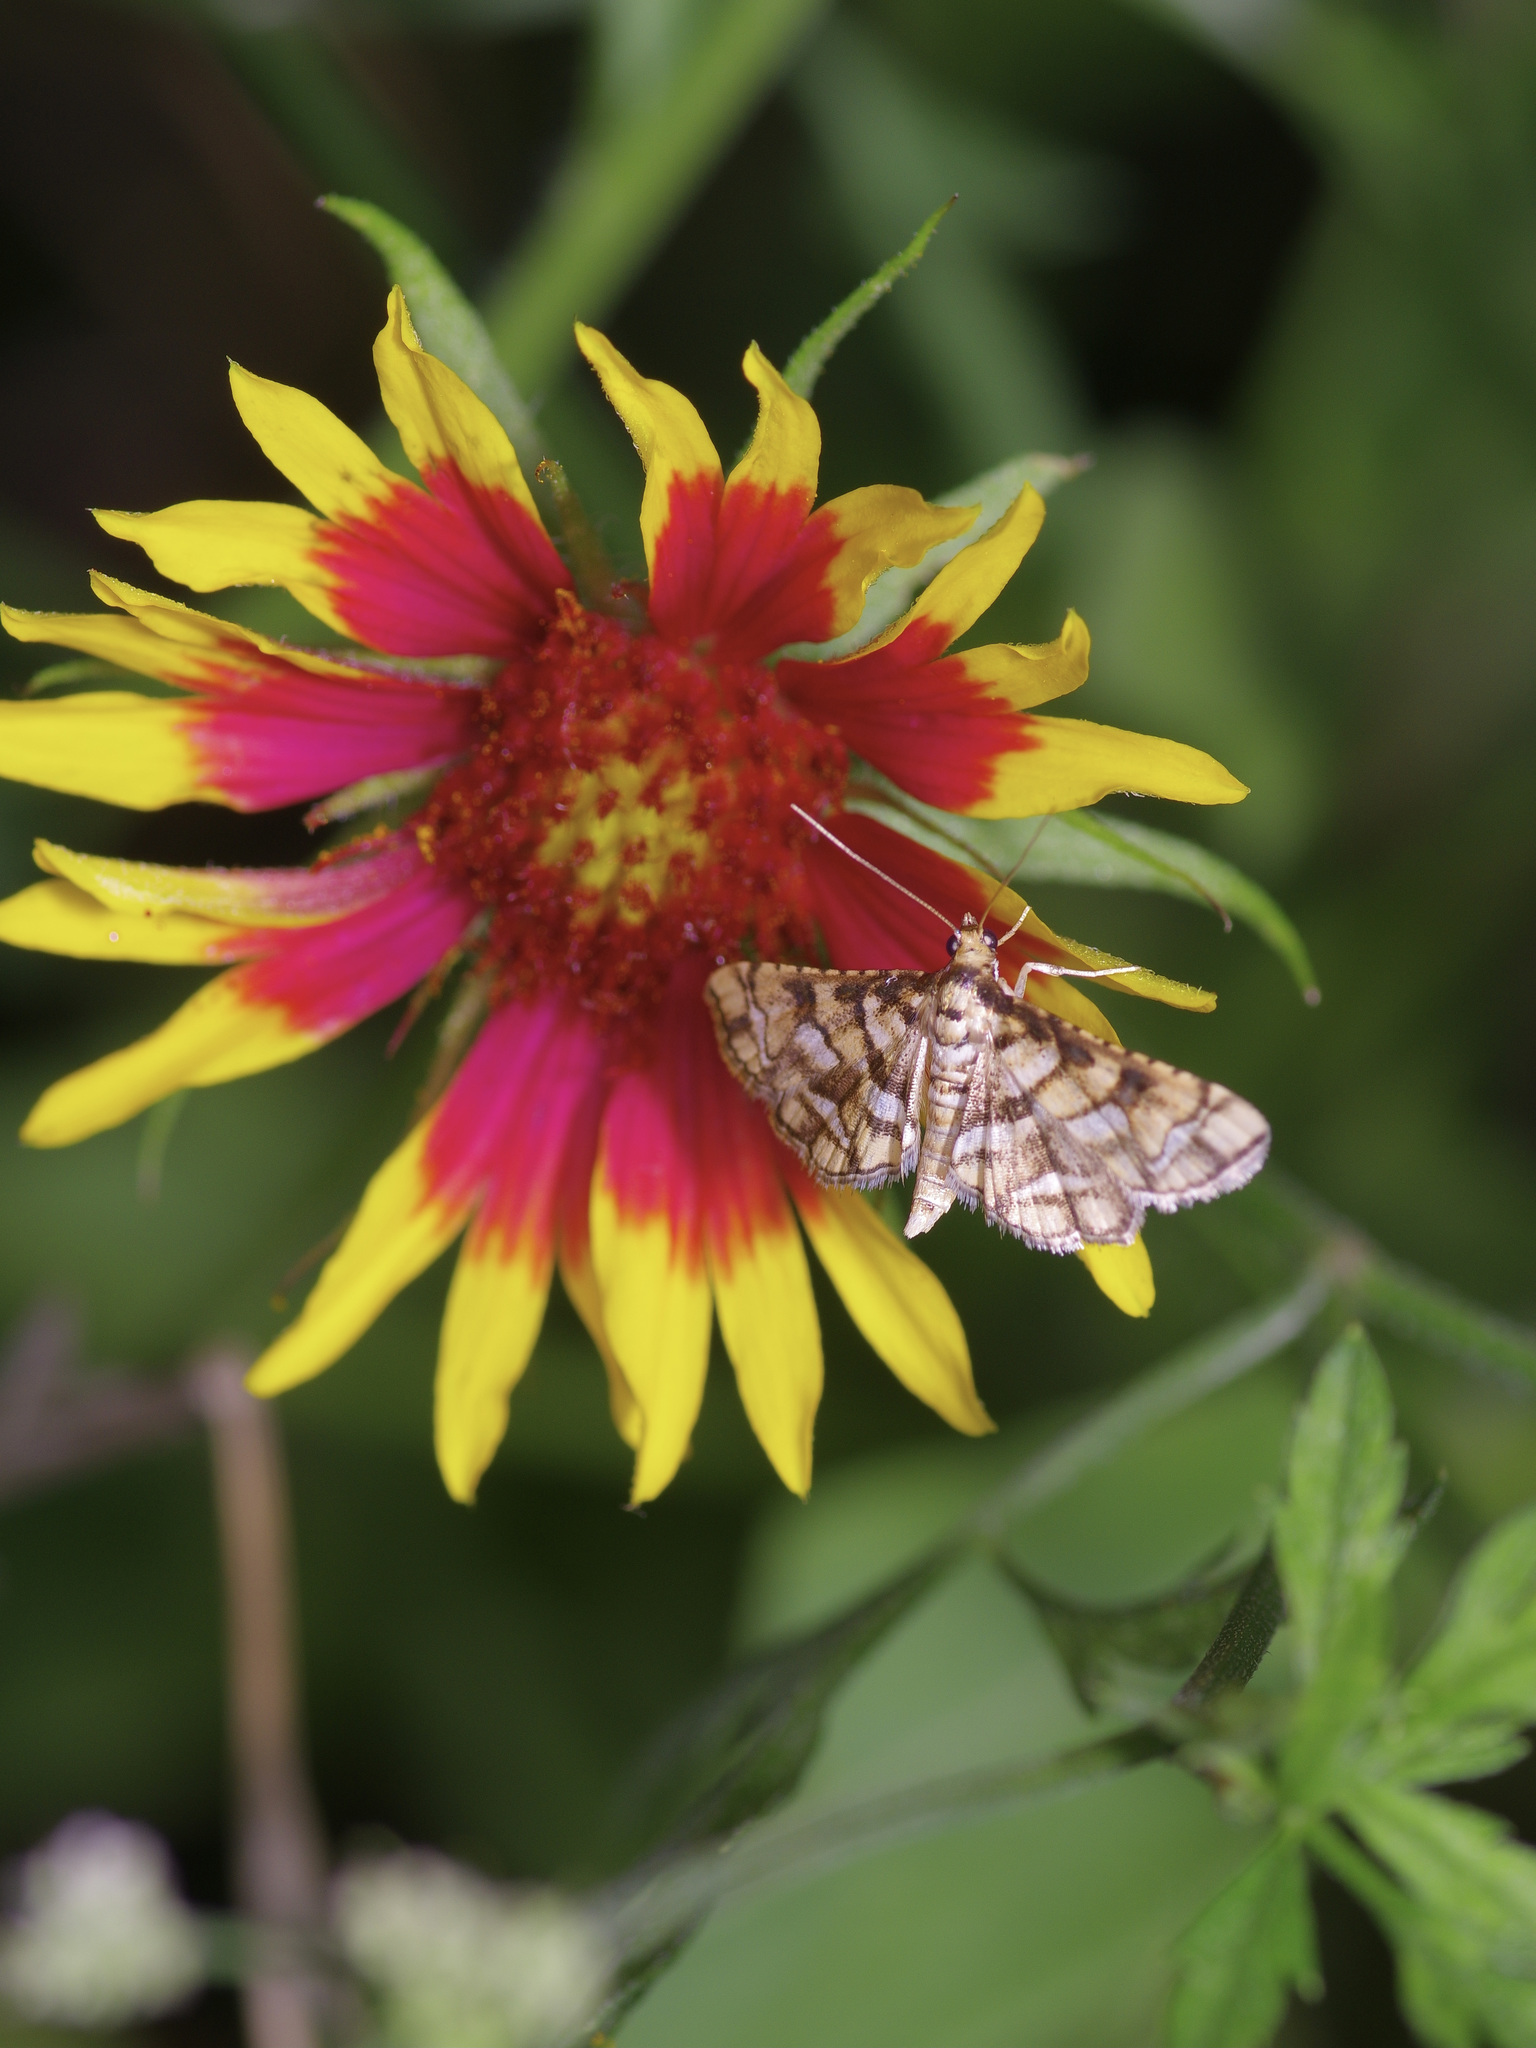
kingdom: Animalia
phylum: Arthropoda
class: Insecta
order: Lepidoptera
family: Crambidae
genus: Hileithia
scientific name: Hileithia magualis
